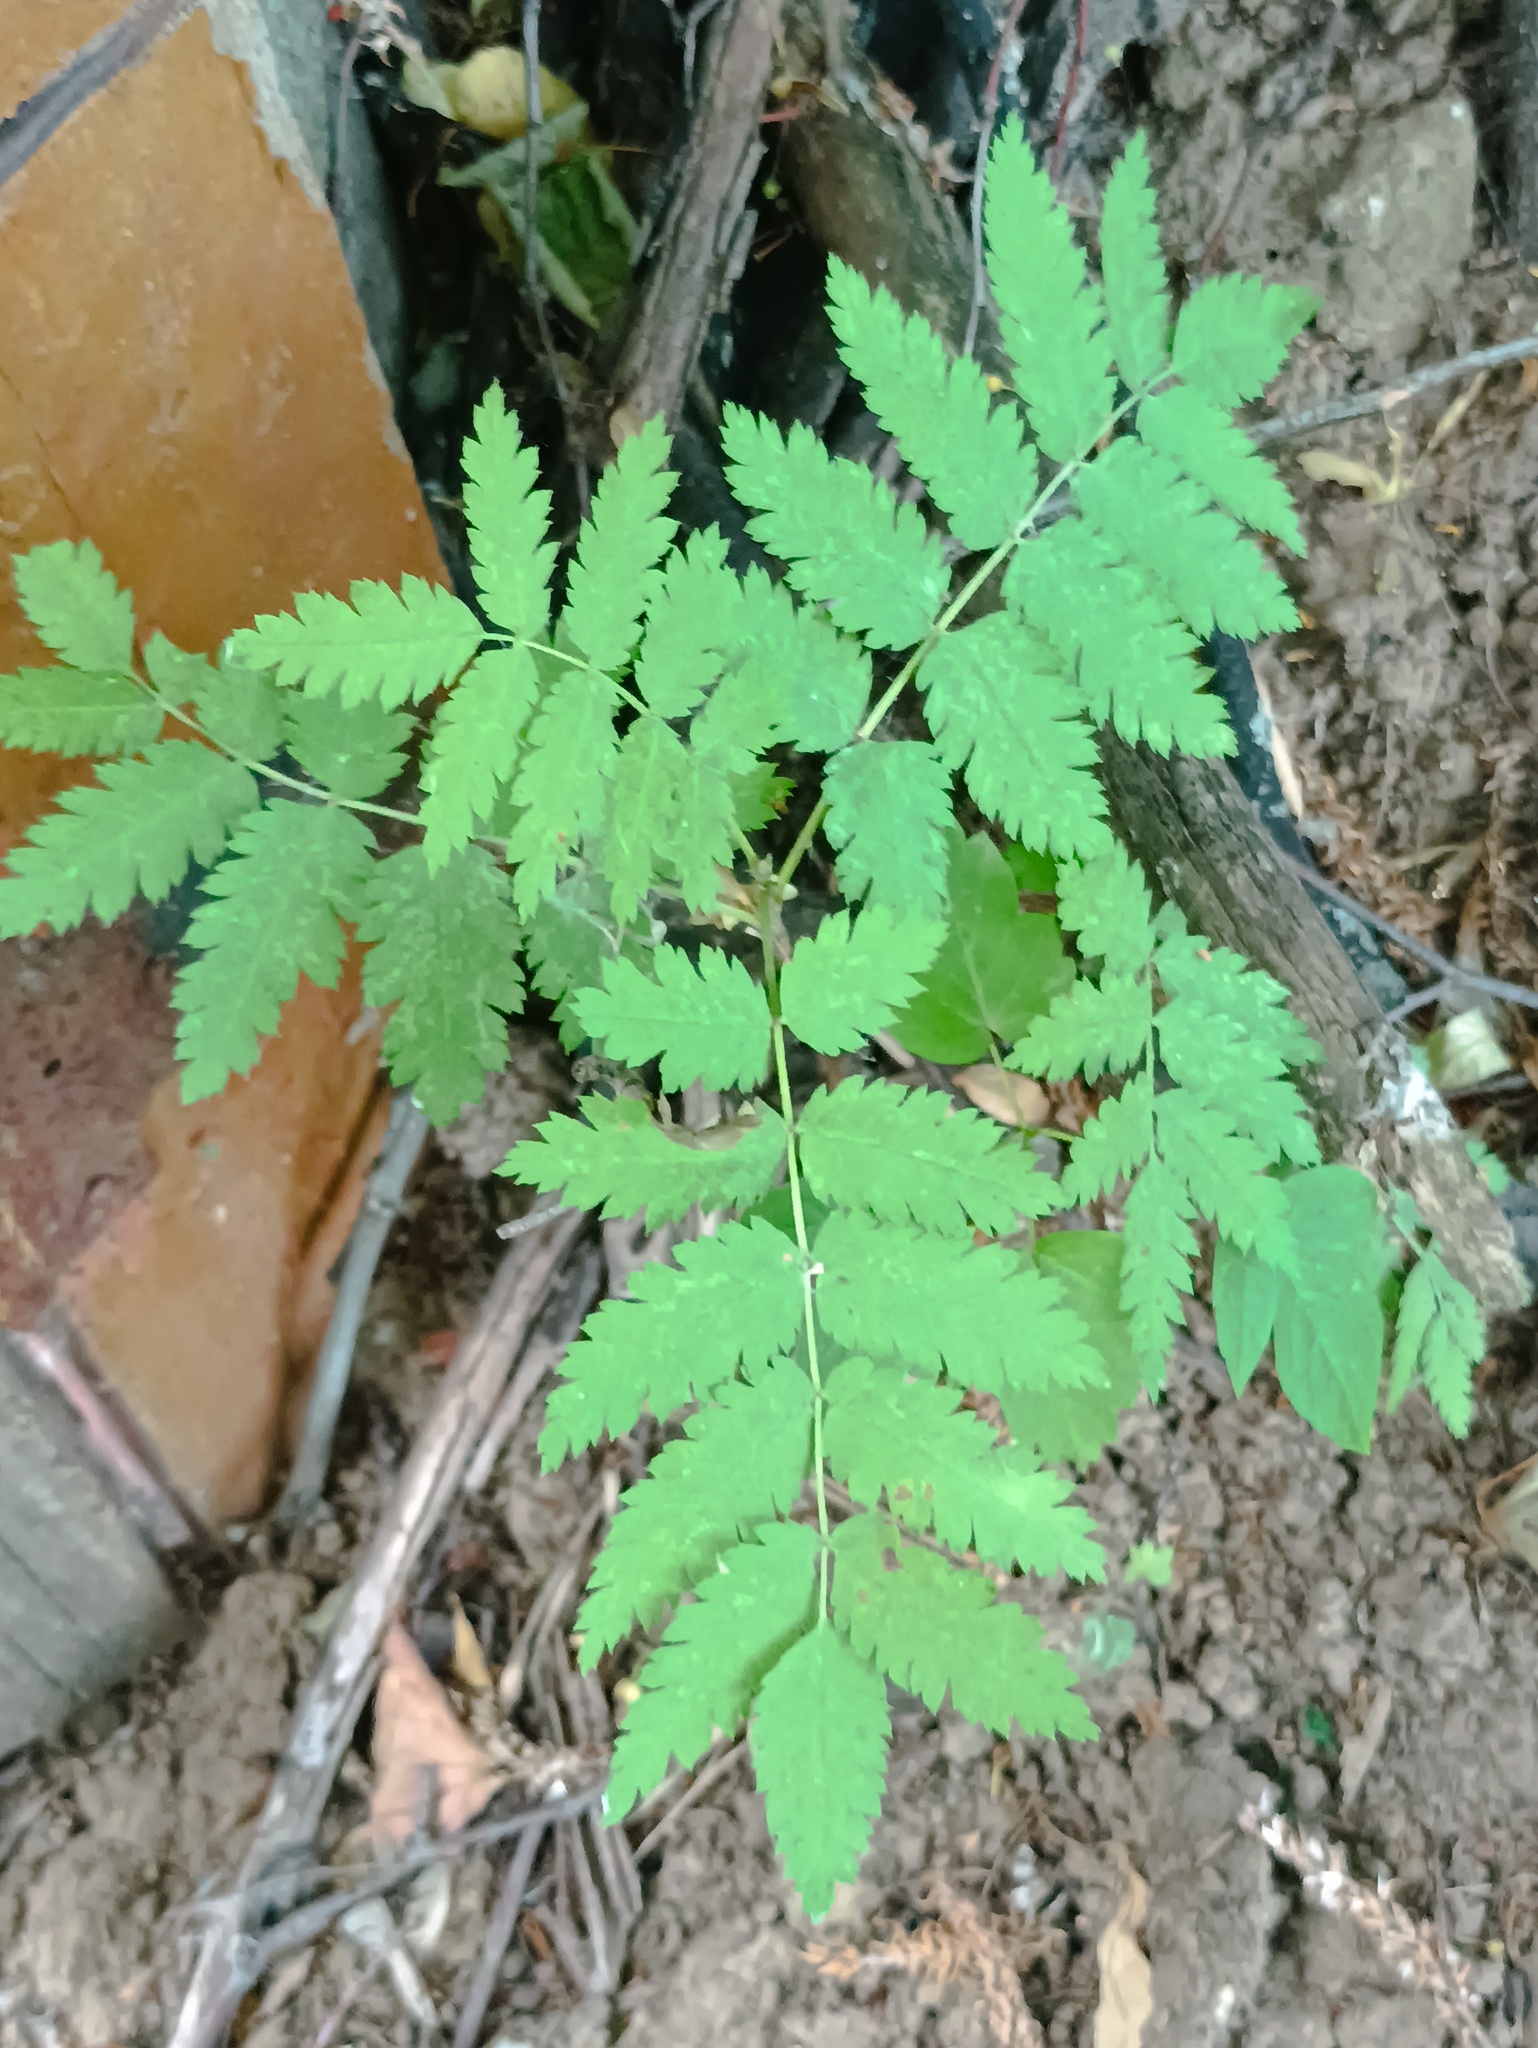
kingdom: Plantae
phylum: Tracheophyta
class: Magnoliopsida
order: Rosales
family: Rosaceae
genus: Sorbus
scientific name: Sorbus aucuparia
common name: Rowan
